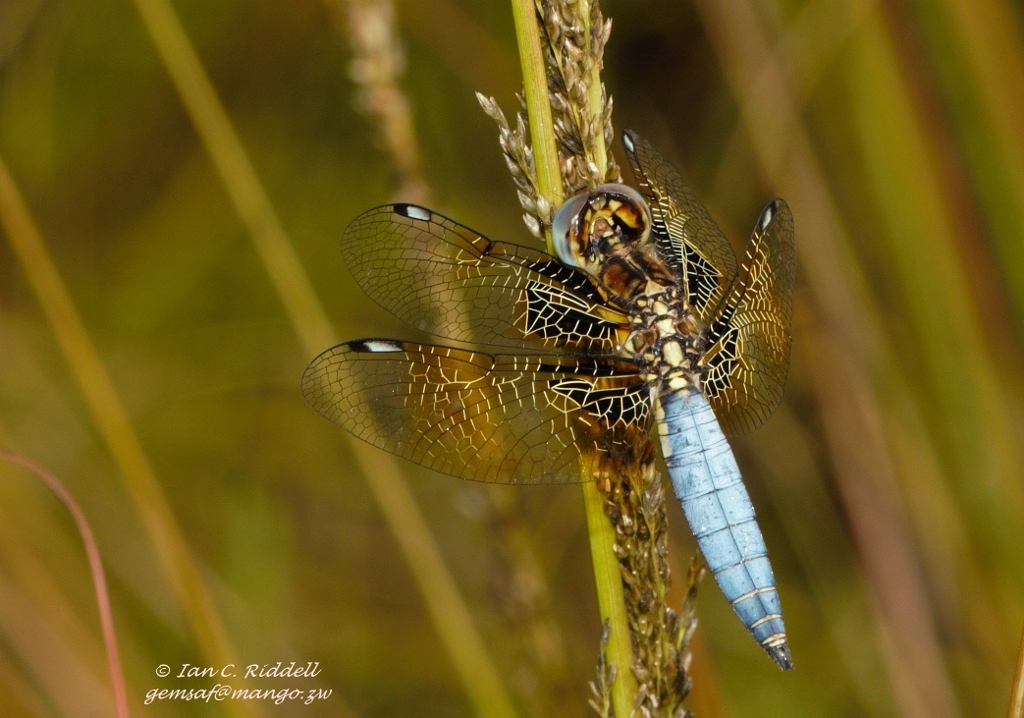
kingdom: Animalia
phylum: Arthropoda
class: Insecta
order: Odonata
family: Libellulidae
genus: Palpopleura
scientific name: Palpopleura jucunda
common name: Yellow-veined widow
